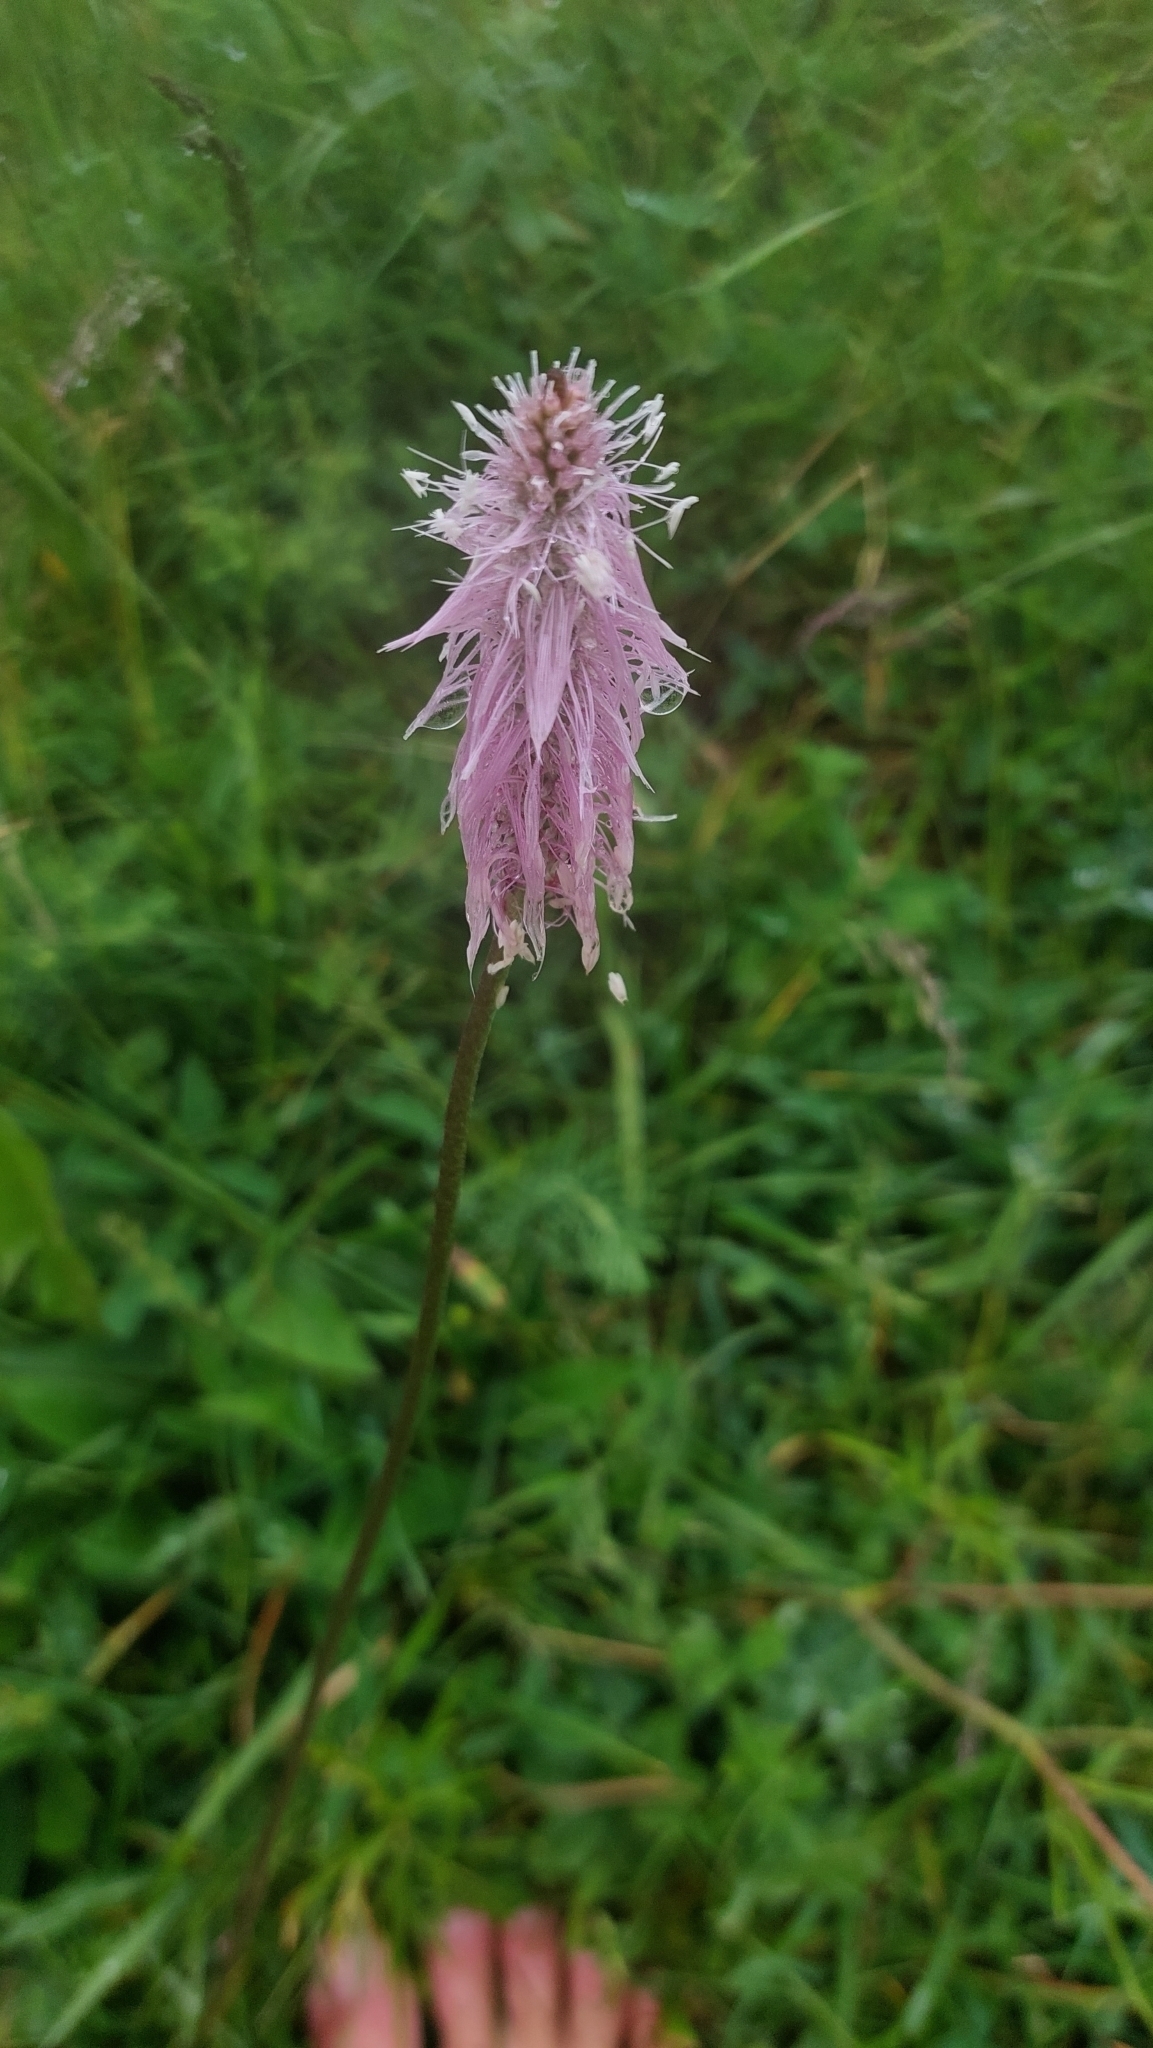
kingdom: Plantae
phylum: Tracheophyta
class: Magnoliopsida
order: Lamiales
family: Plantaginaceae
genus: Plantago
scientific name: Plantago media
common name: Hoary plantain
